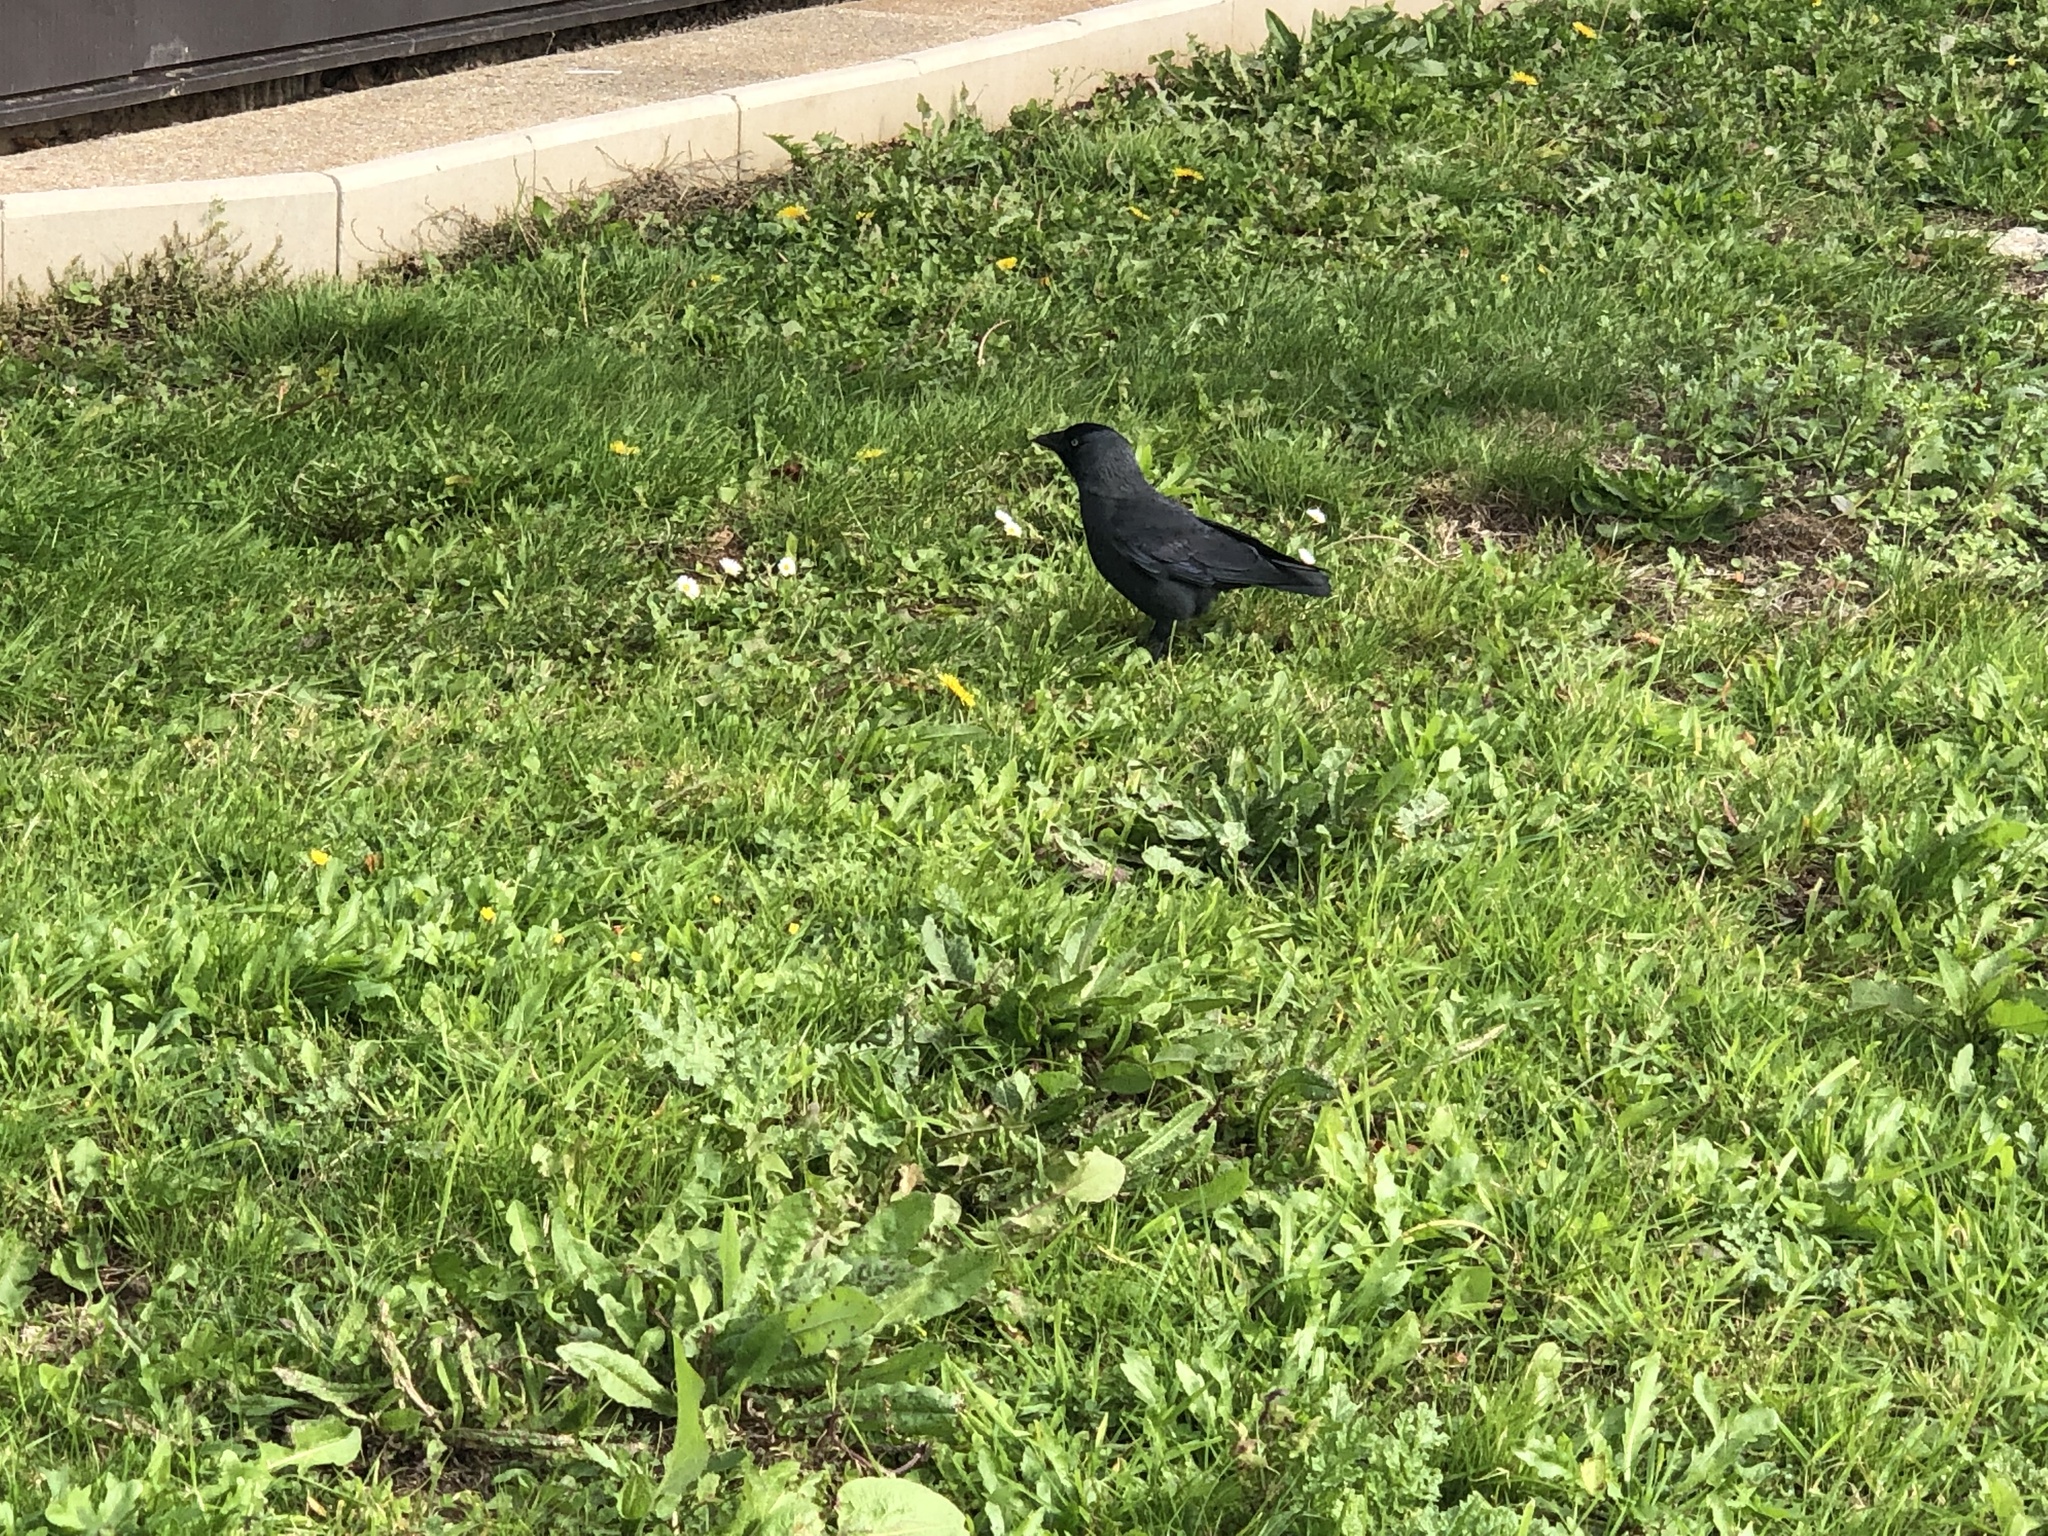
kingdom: Animalia
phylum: Chordata
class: Aves
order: Passeriformes
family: Corvidae
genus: Coloeus
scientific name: Coloeus monedula
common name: Western jackdaw
